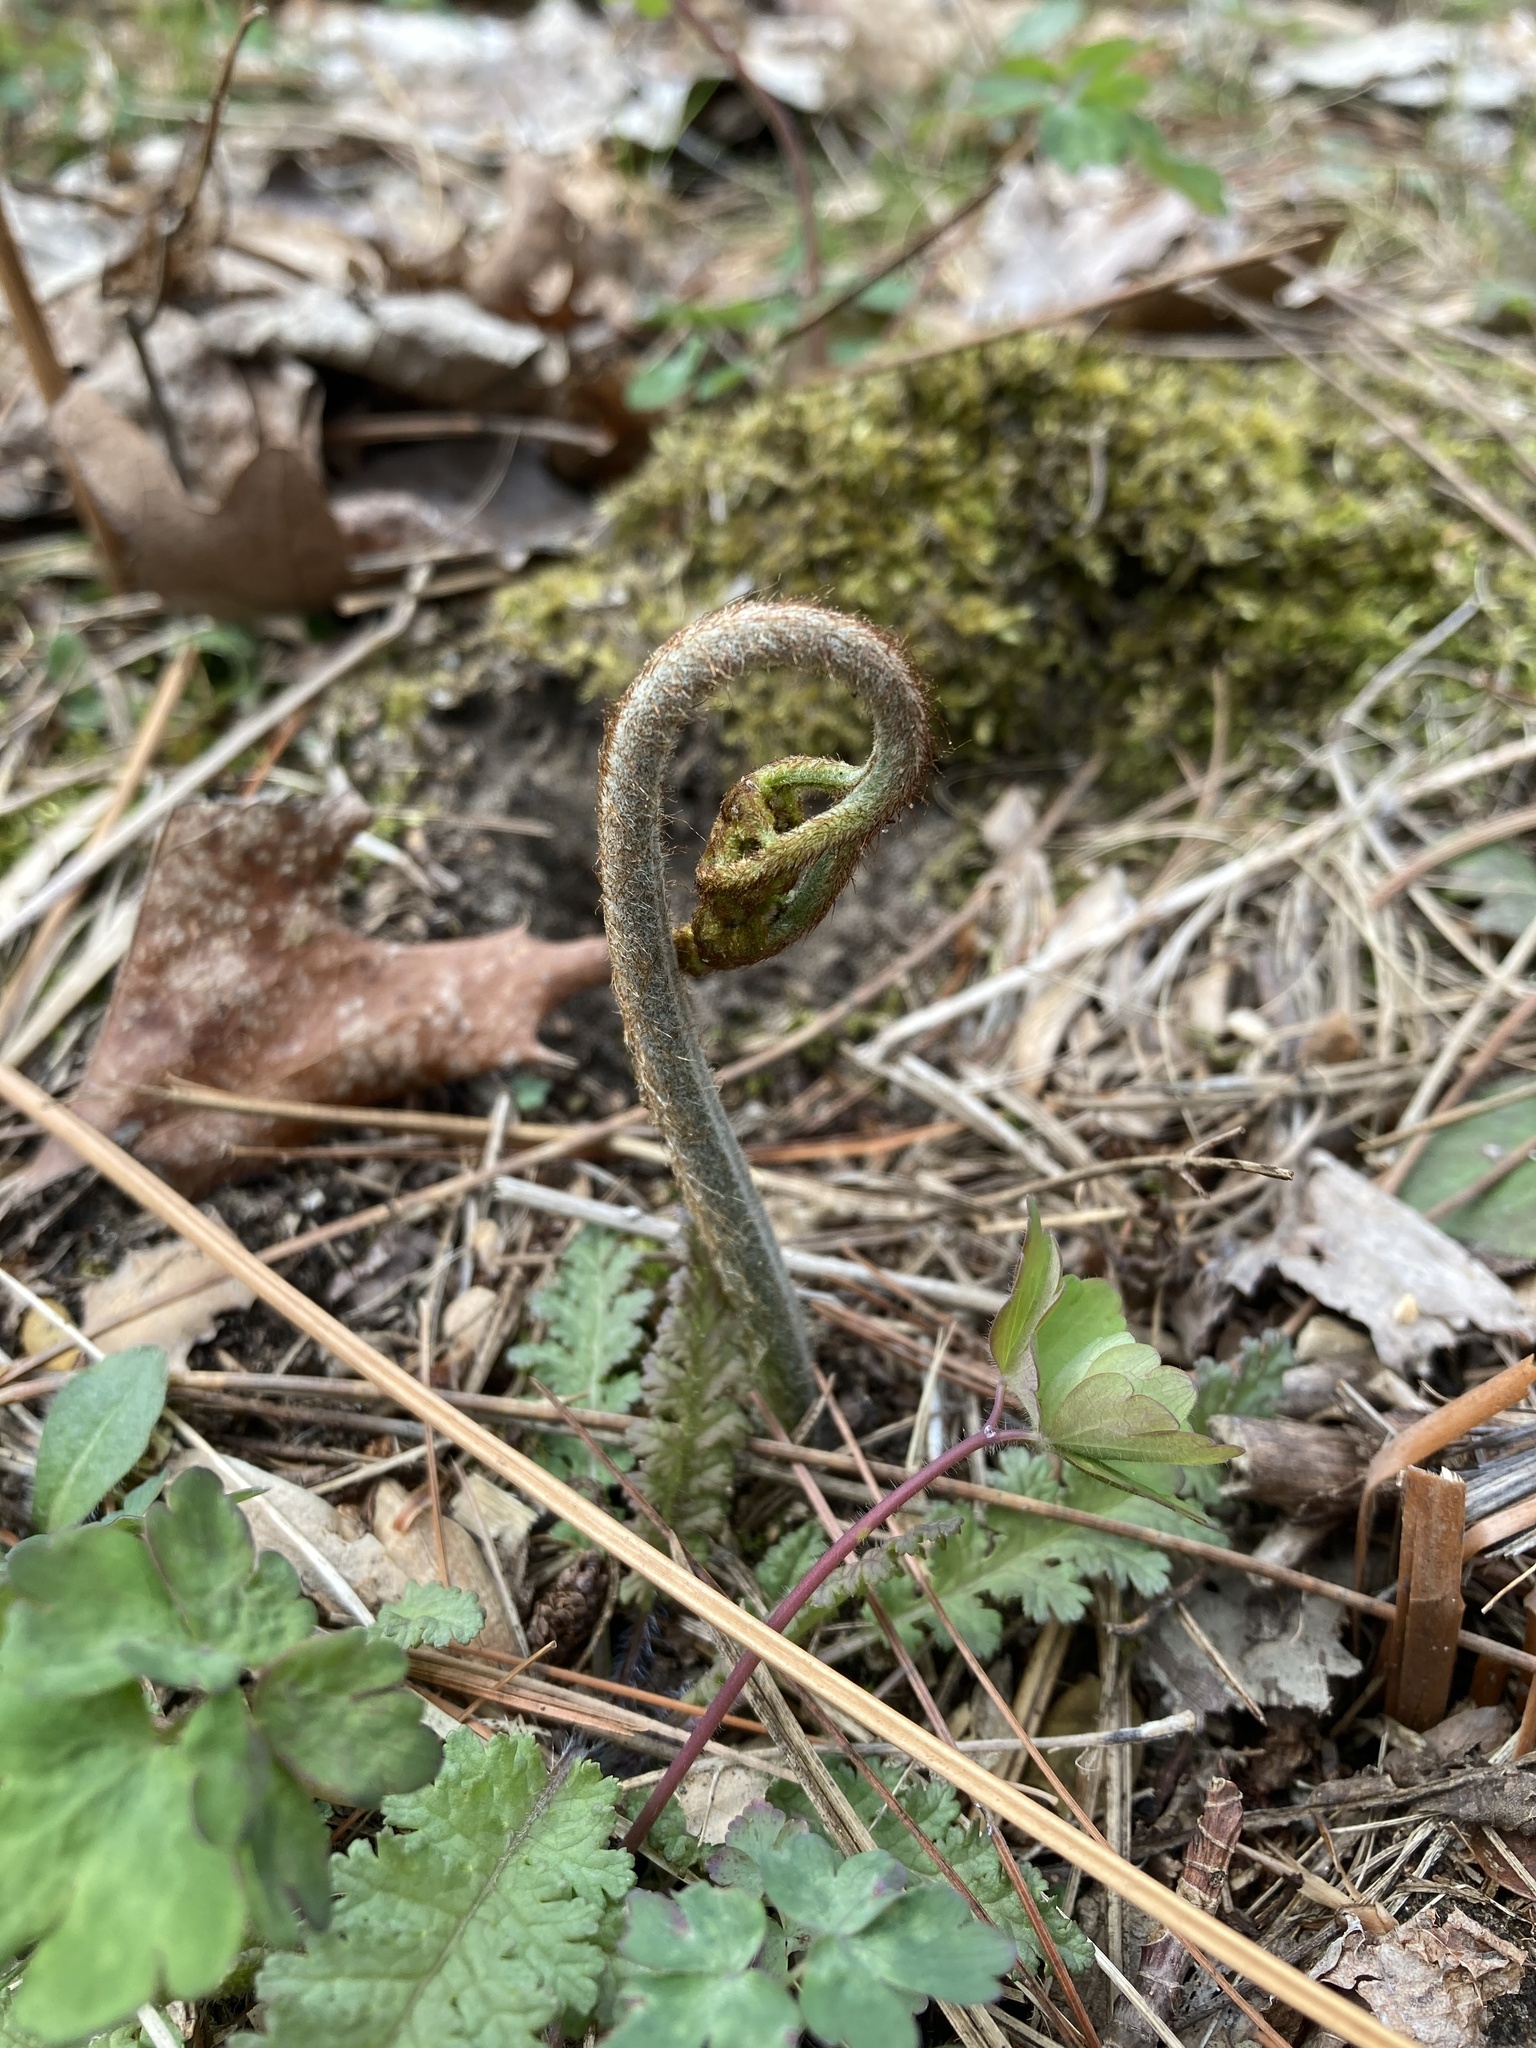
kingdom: Plantae
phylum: Tracheophyta
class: Polypodiopsida
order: Polypodiales
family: Dennstaedtiaceae
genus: Pteridium
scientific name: Pteridium aquilinum
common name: Bracken
